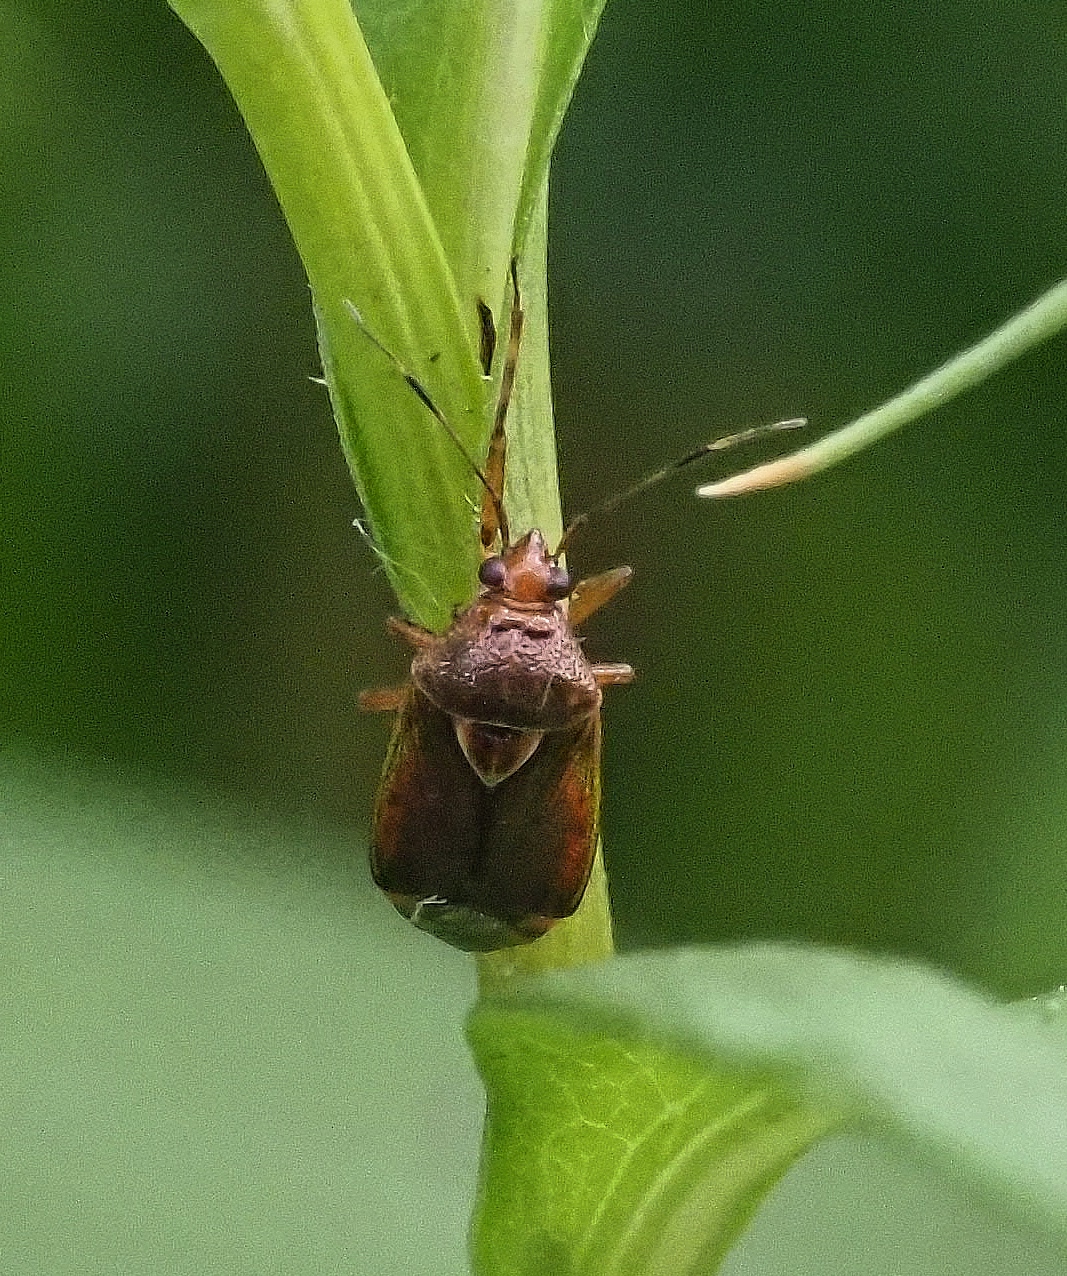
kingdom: Animalia
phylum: Arthropoda
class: Insecta
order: Hemiptera
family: Miridae
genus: Deraeocoris
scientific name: Deraeocoris flavilinea
